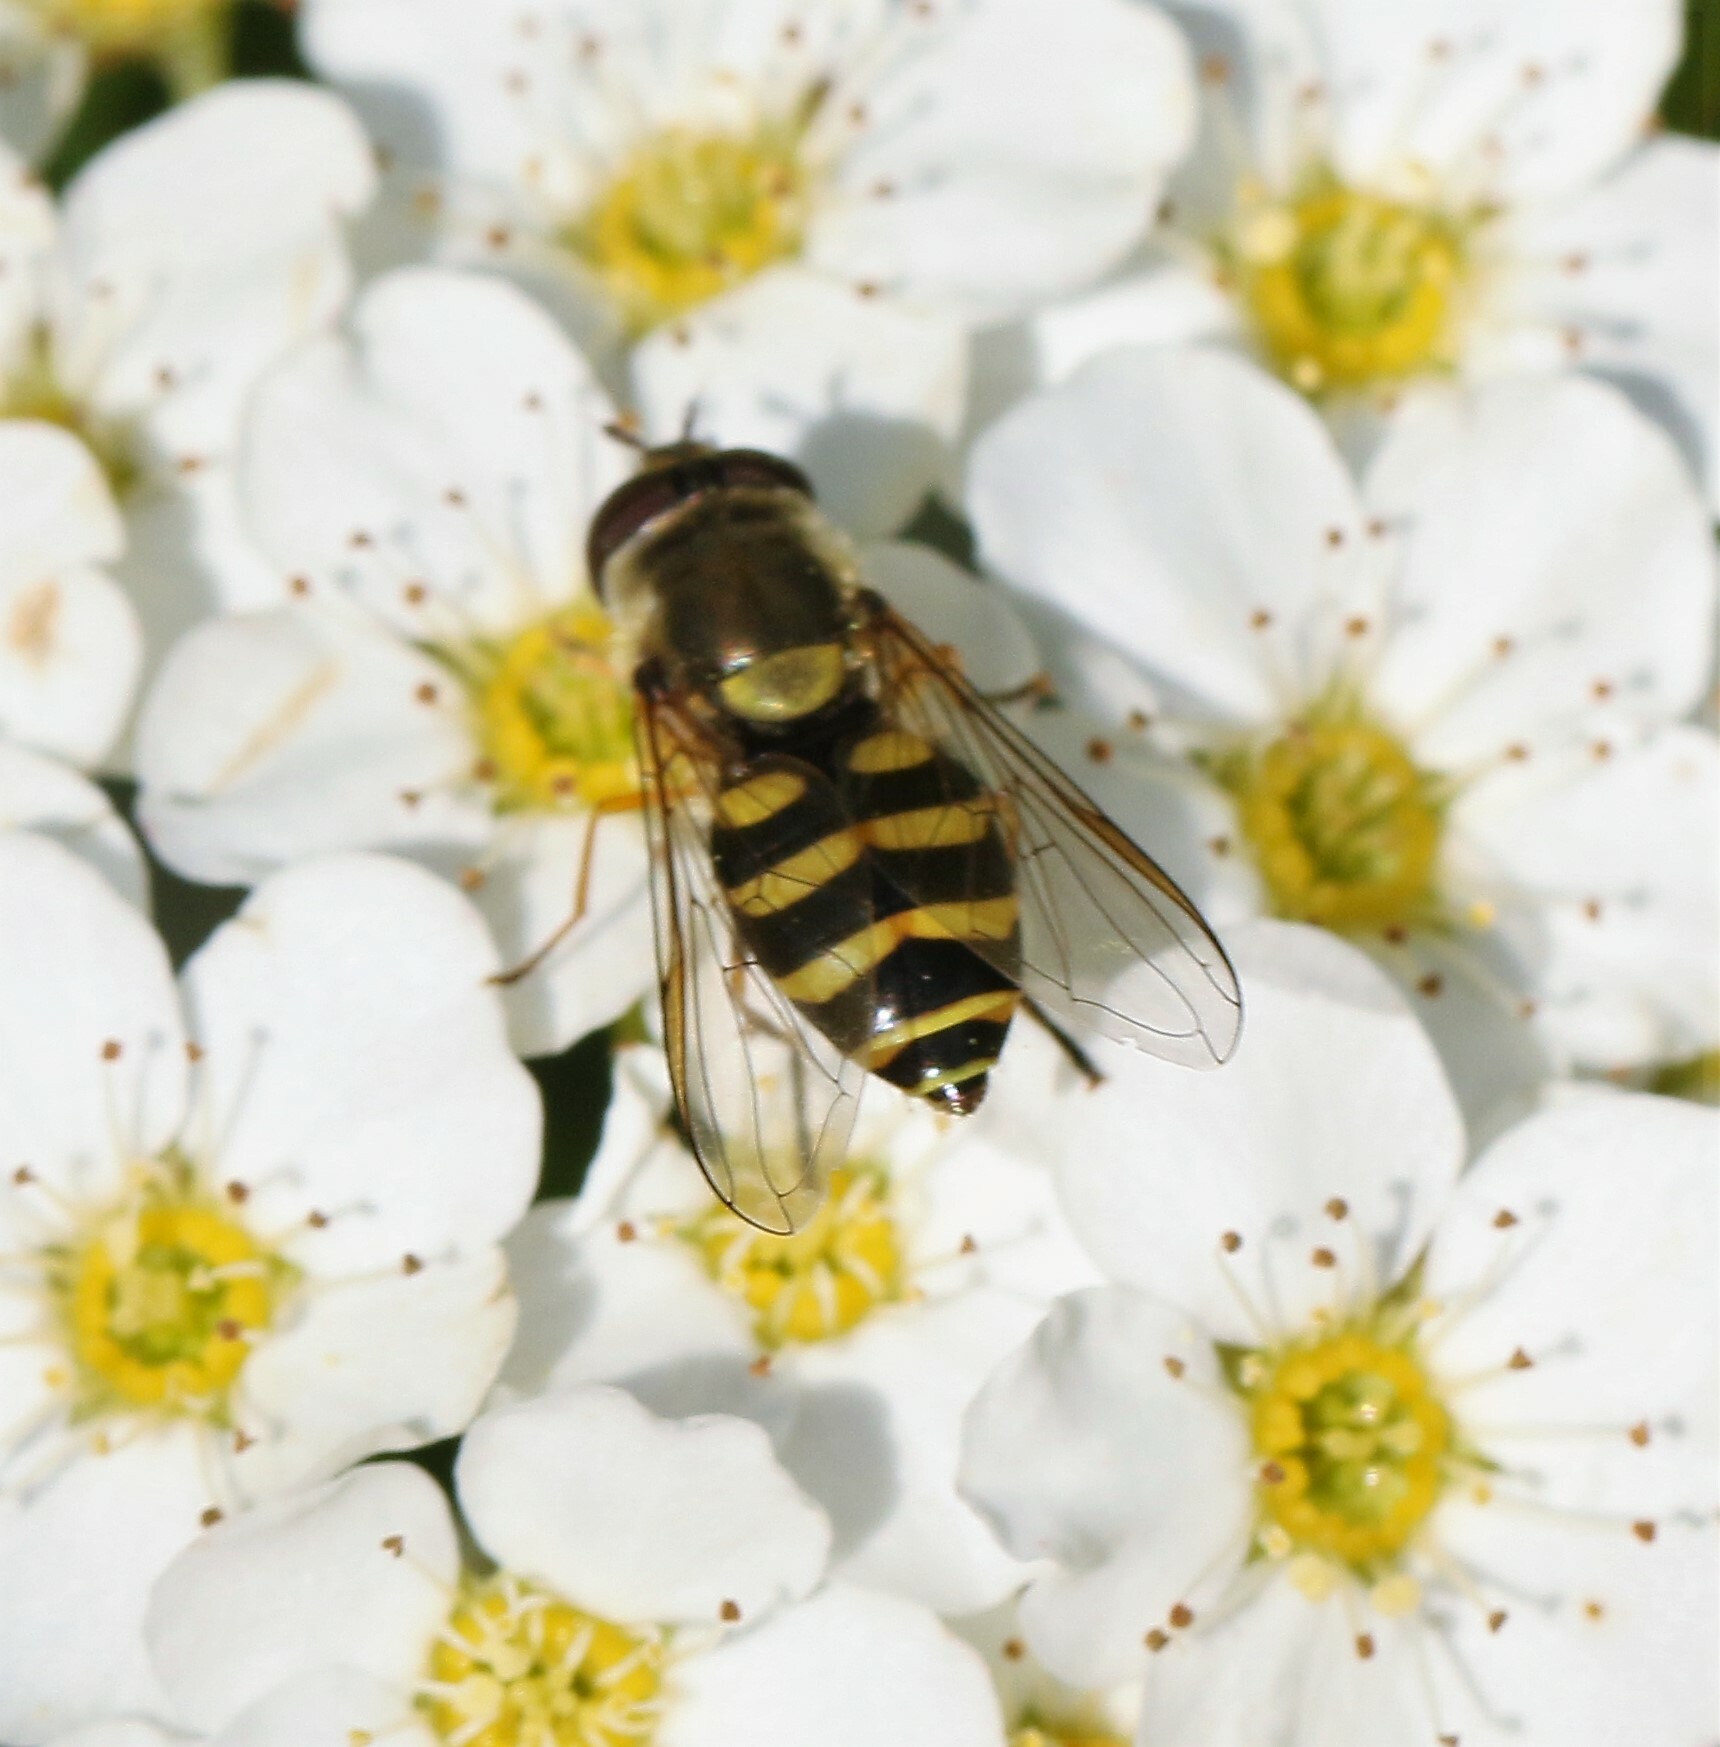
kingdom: Animalia
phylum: Arthropoda
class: Insecta
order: Diptera
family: Syrphidae
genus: Syrphus
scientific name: Syrphus
